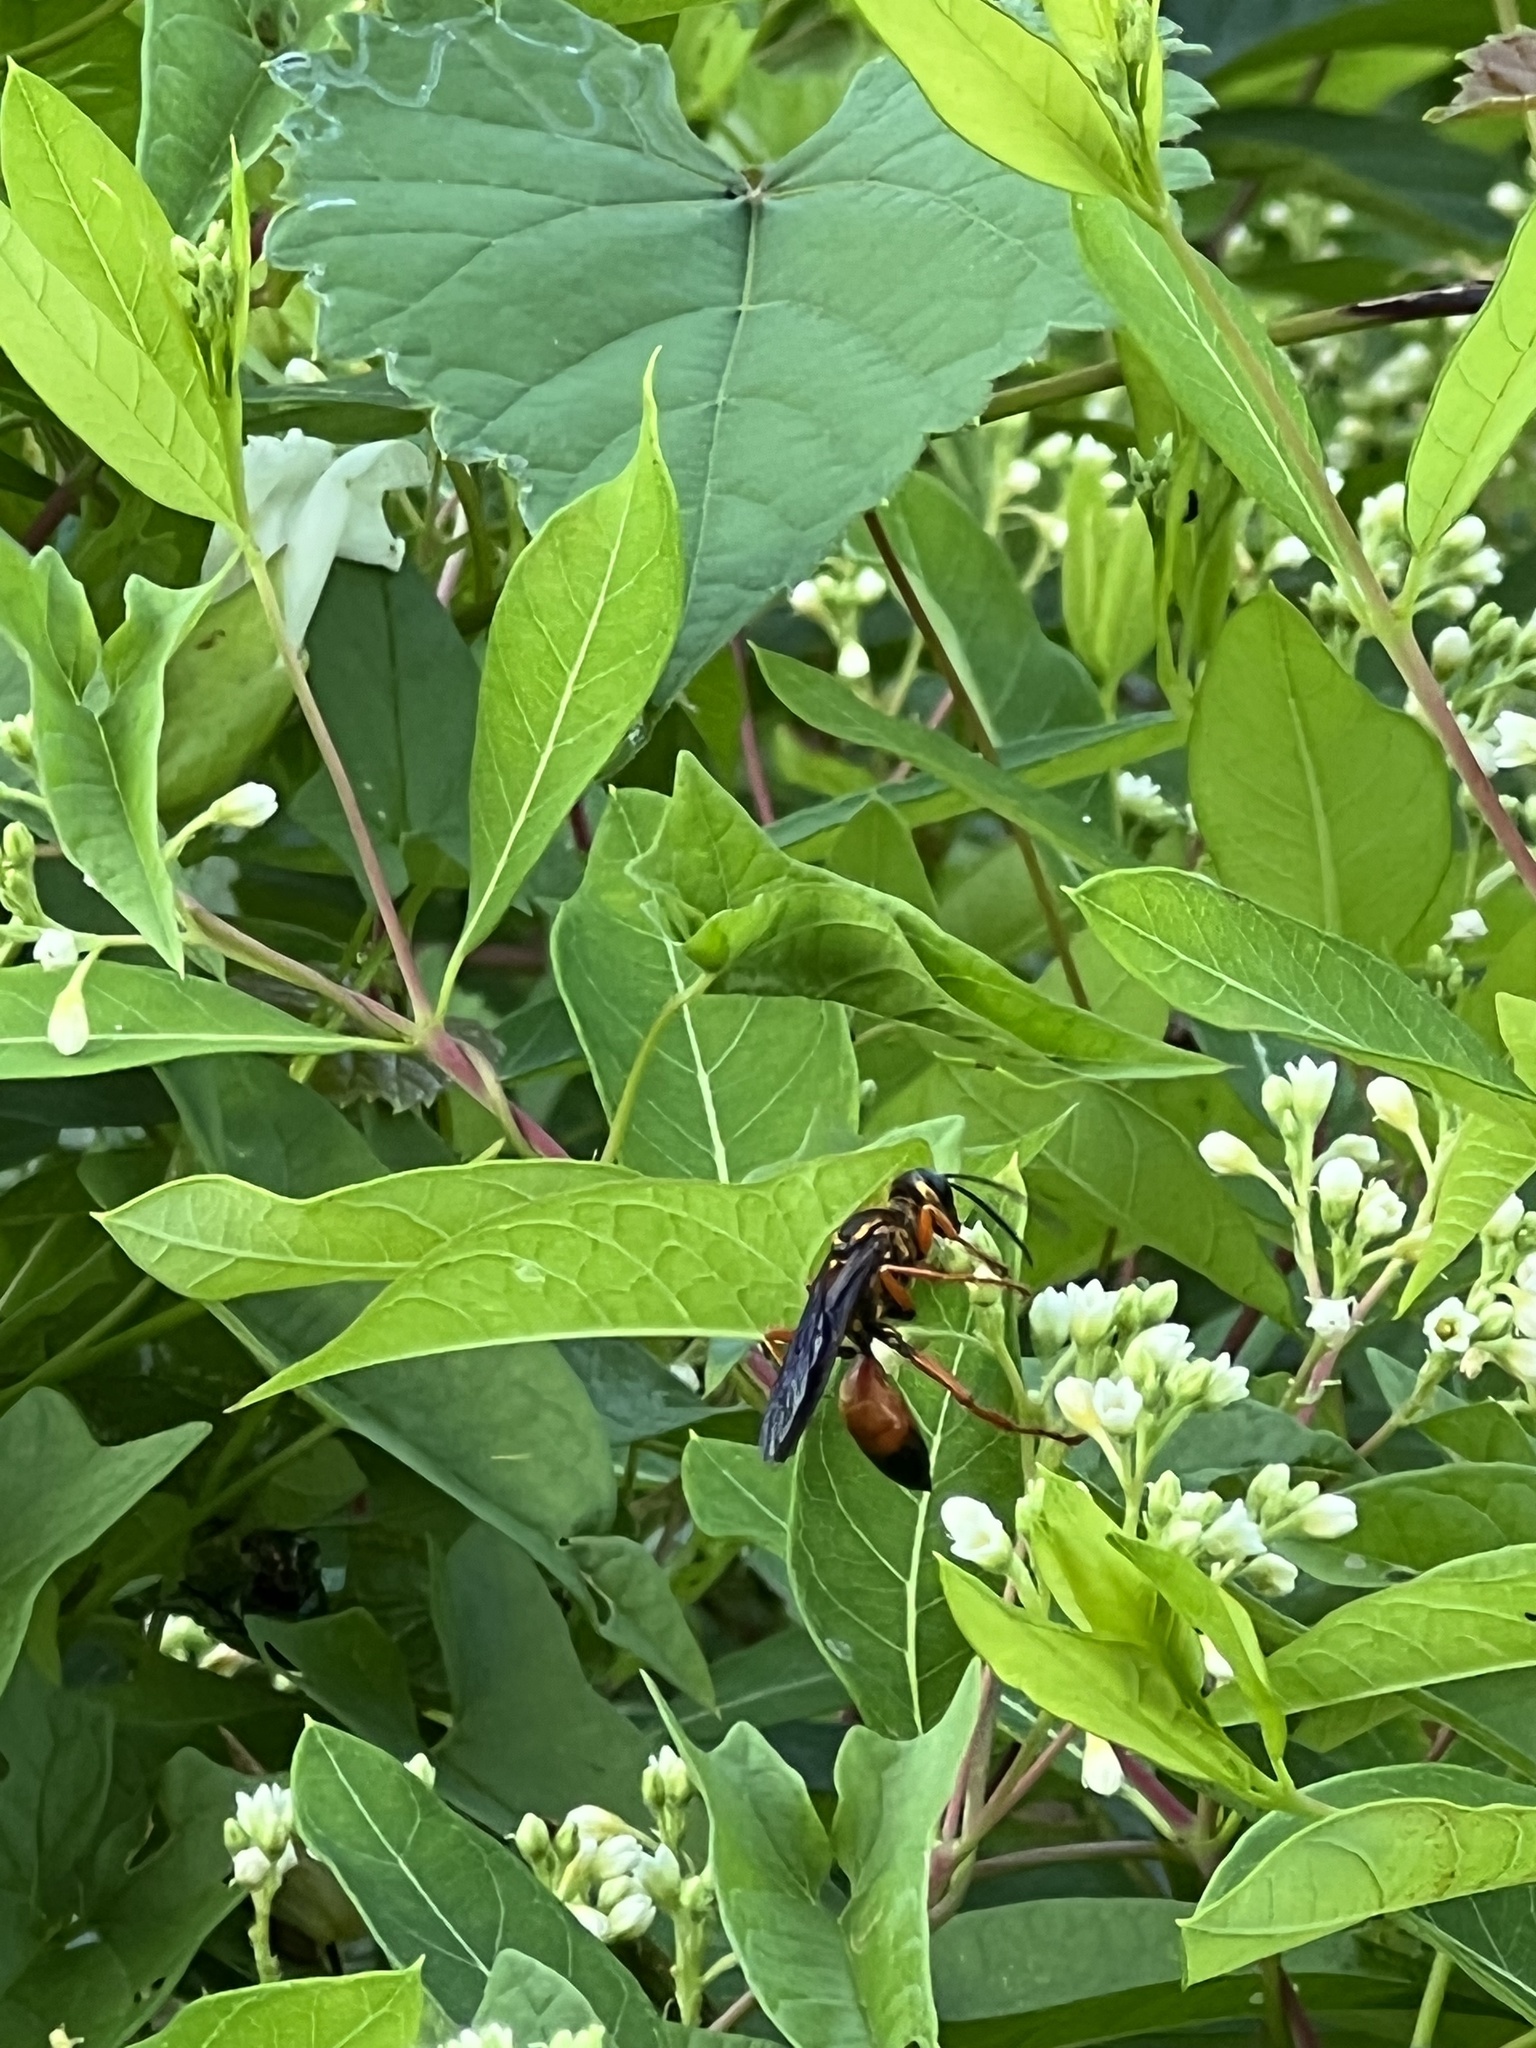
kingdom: Animalia
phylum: Arthropoda
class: Insecta
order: Hymenoptera
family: Sphecidae
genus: Sphex
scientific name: Sphex ichneumoneus
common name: Great golden digger wasp
